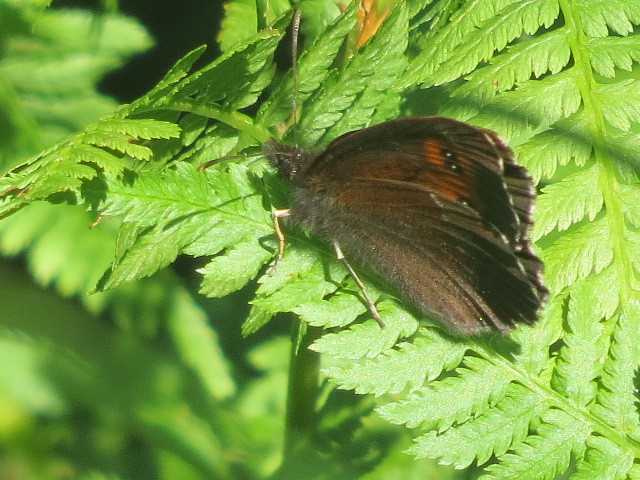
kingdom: Animalia
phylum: Arthropoda
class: Insecta
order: Lepidoptera
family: Nymphalidae
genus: Erebia
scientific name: Erebia euryale
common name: Large ringlet
